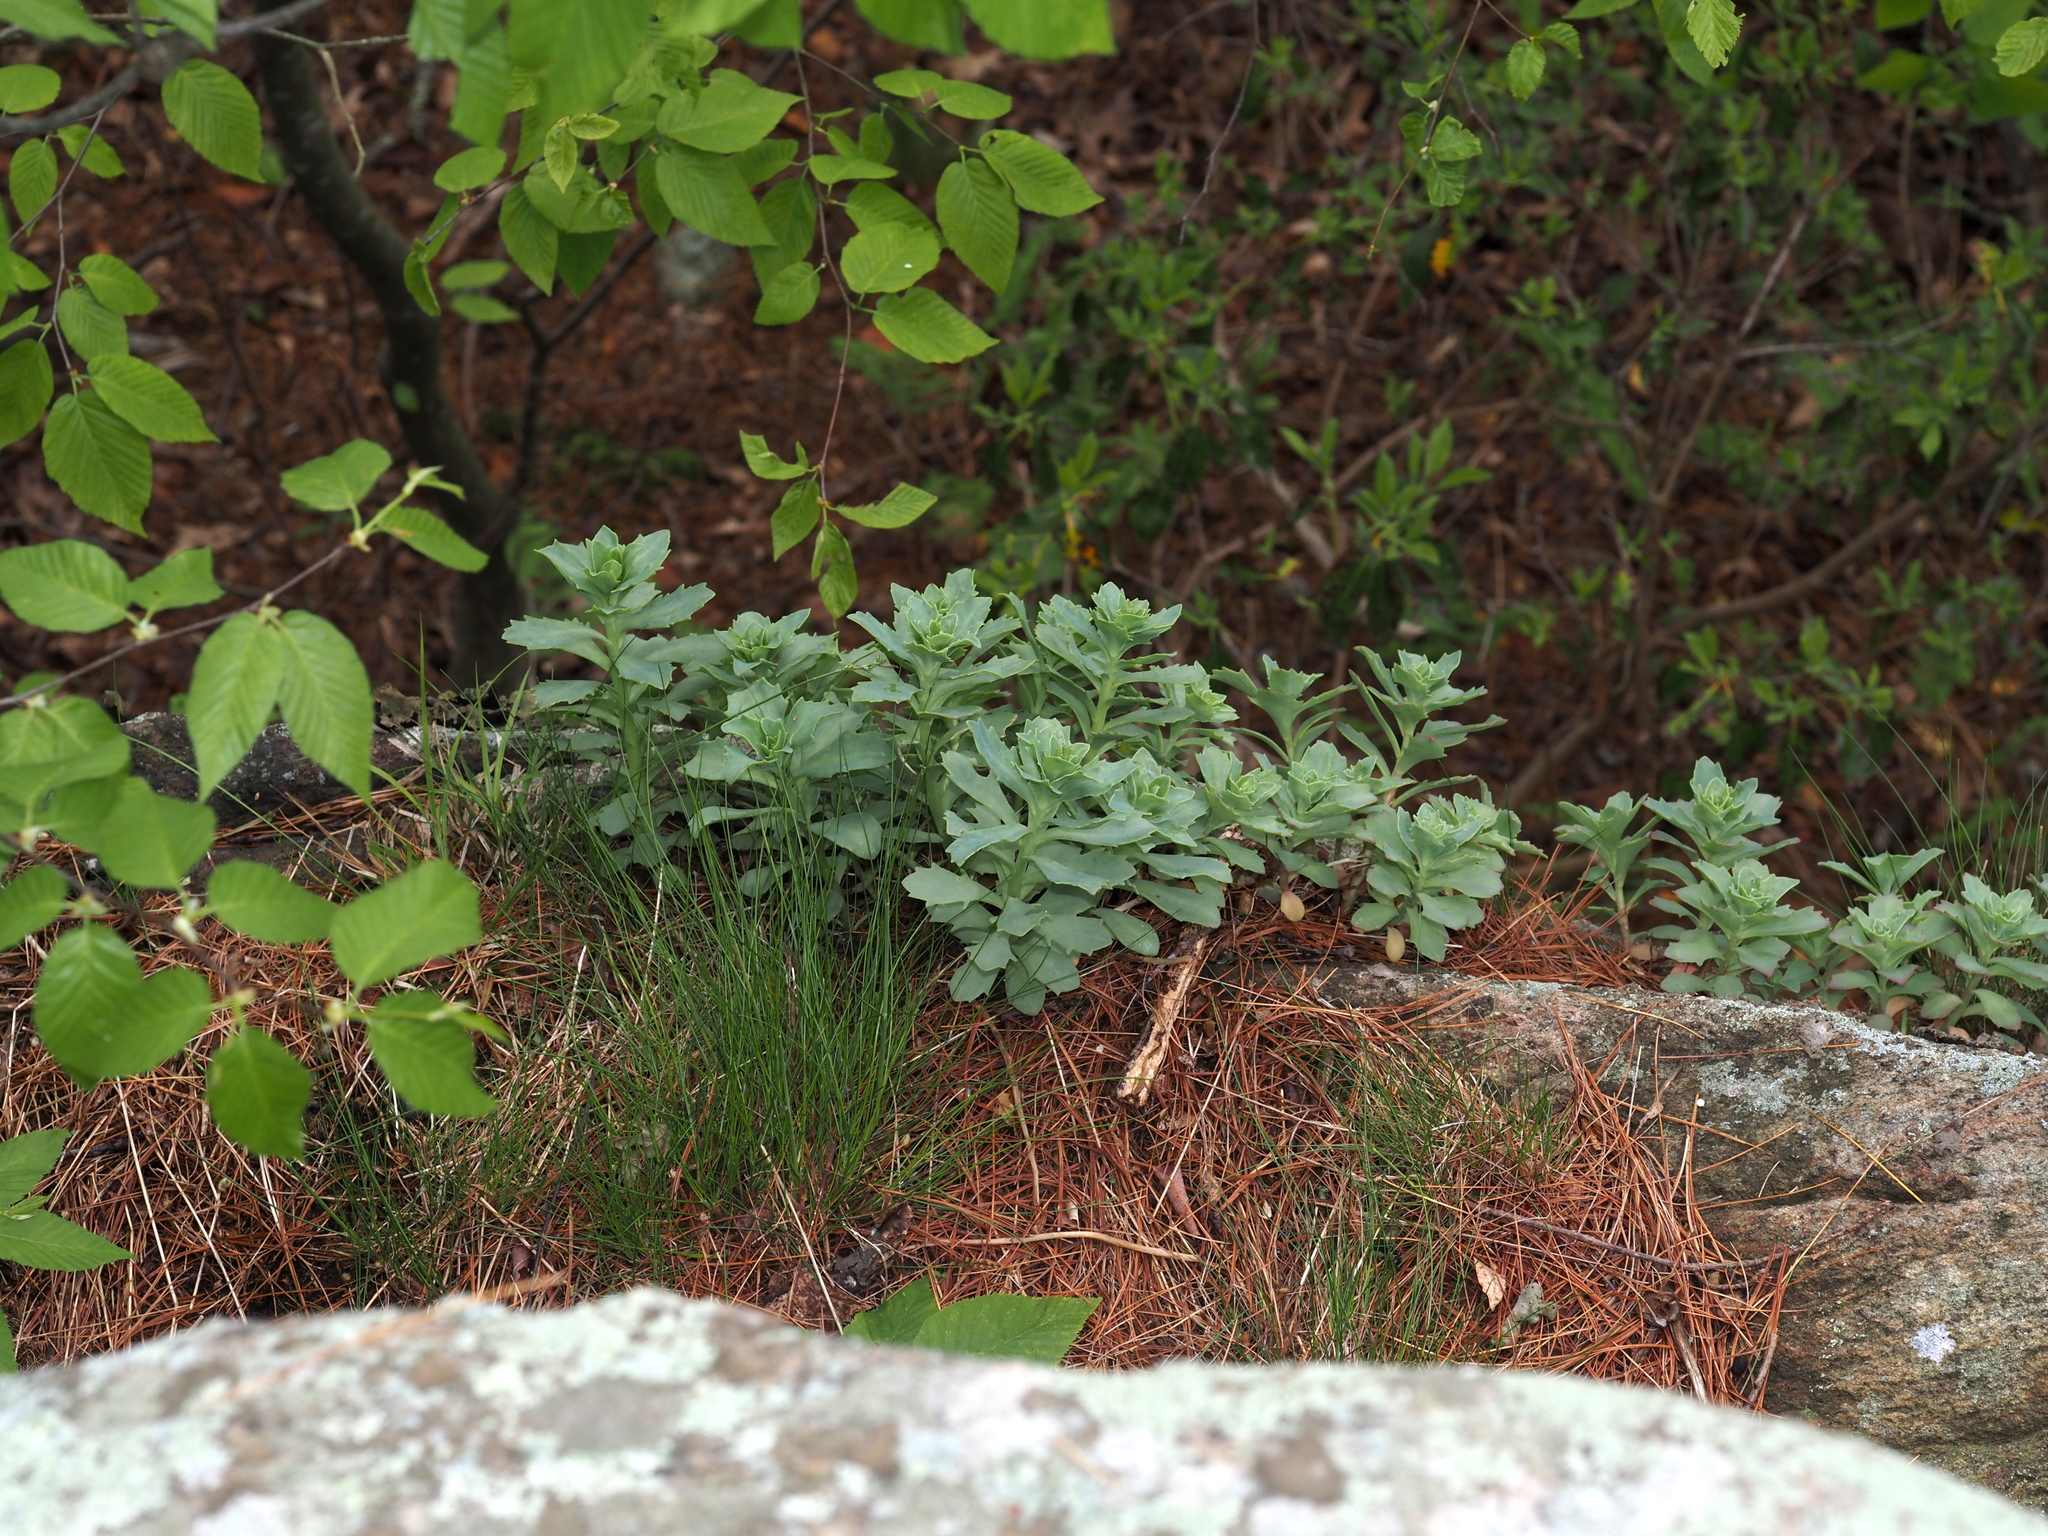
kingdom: Plantae
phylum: Tracheophyta
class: Magnoliopsida
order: Saxifragales
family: Crassulaceae
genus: Hylotelephium
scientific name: Hylotelephium telephioides
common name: Allegheny stonecrop
